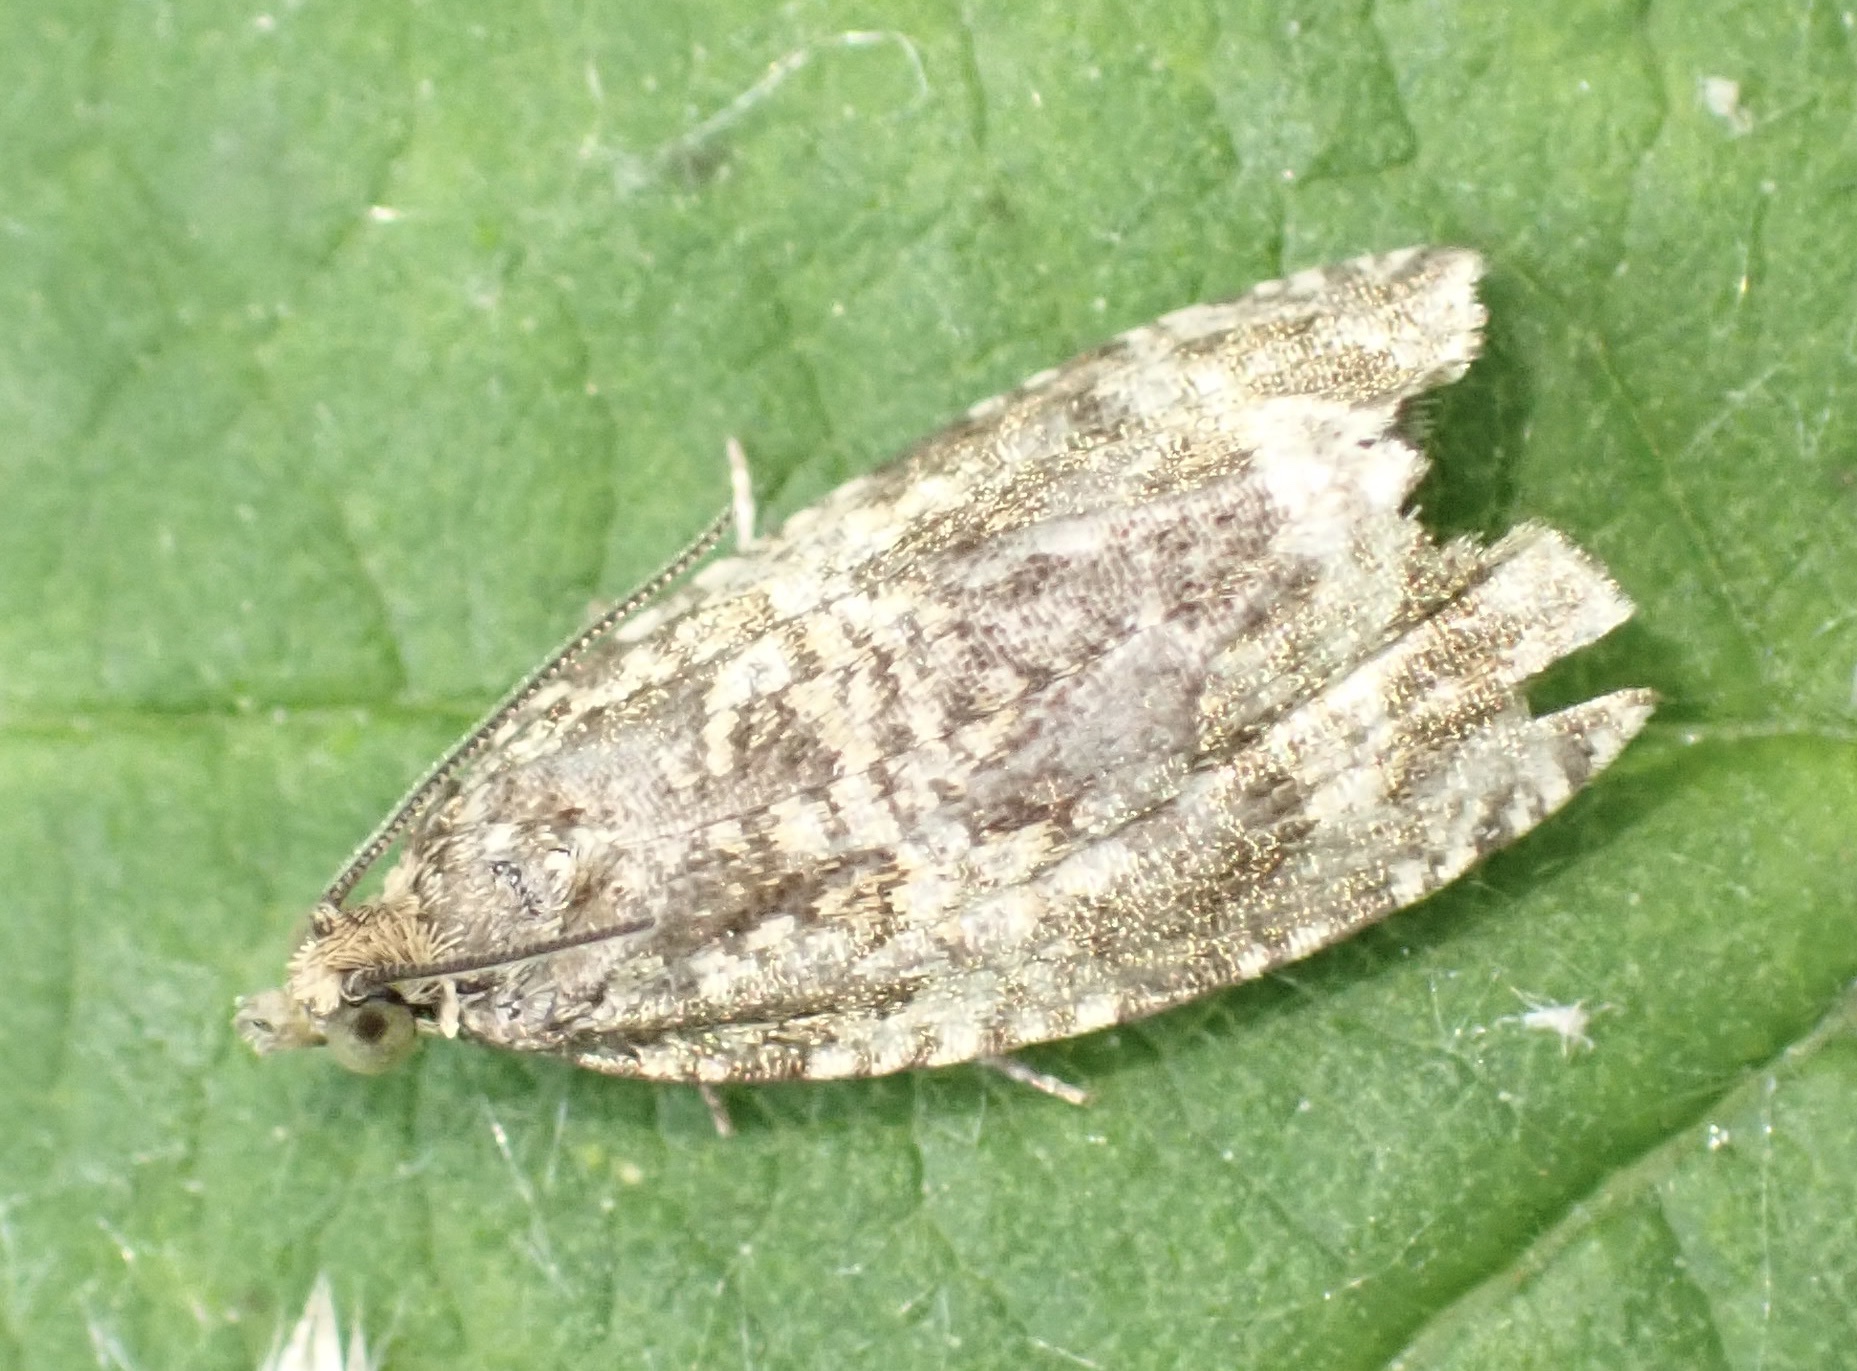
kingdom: Animalia
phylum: Arthropoda
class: Insecta
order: Lepidoptera
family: Tortricidae
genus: Syricoris
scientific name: Syricoris lacunana
